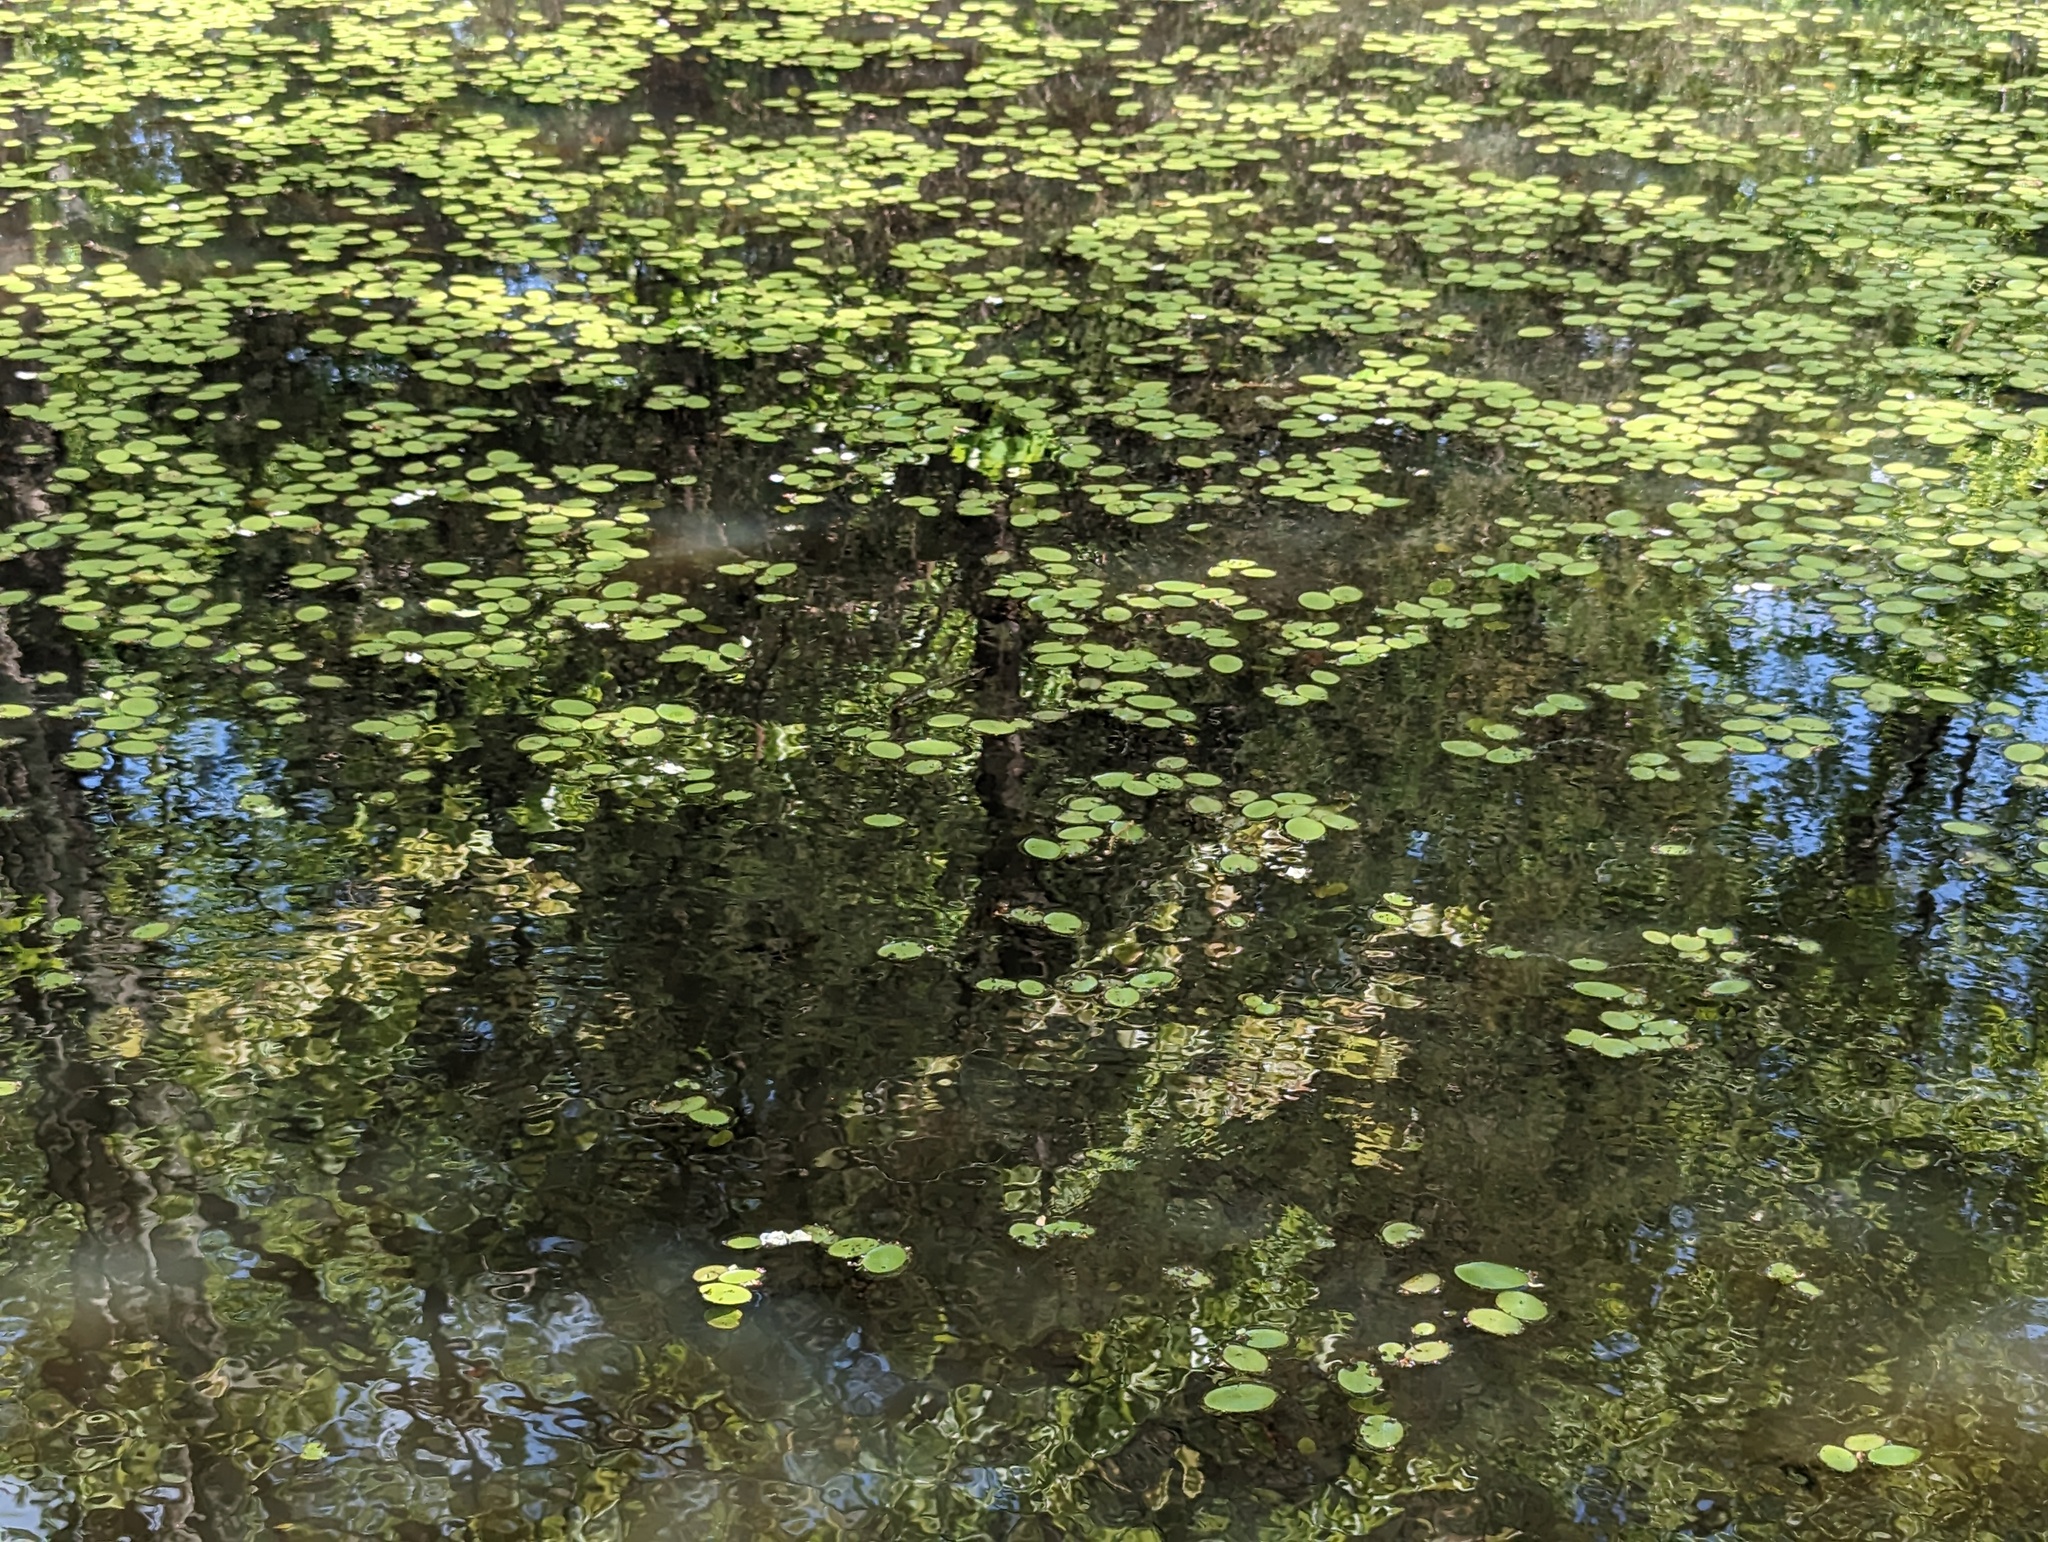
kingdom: Plantae
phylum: Tracheophyta
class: Magnoliopsida
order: Nymphaeales
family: Cabombaceae
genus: Brasenia
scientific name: Brasenia schreberi
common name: Water-shield
